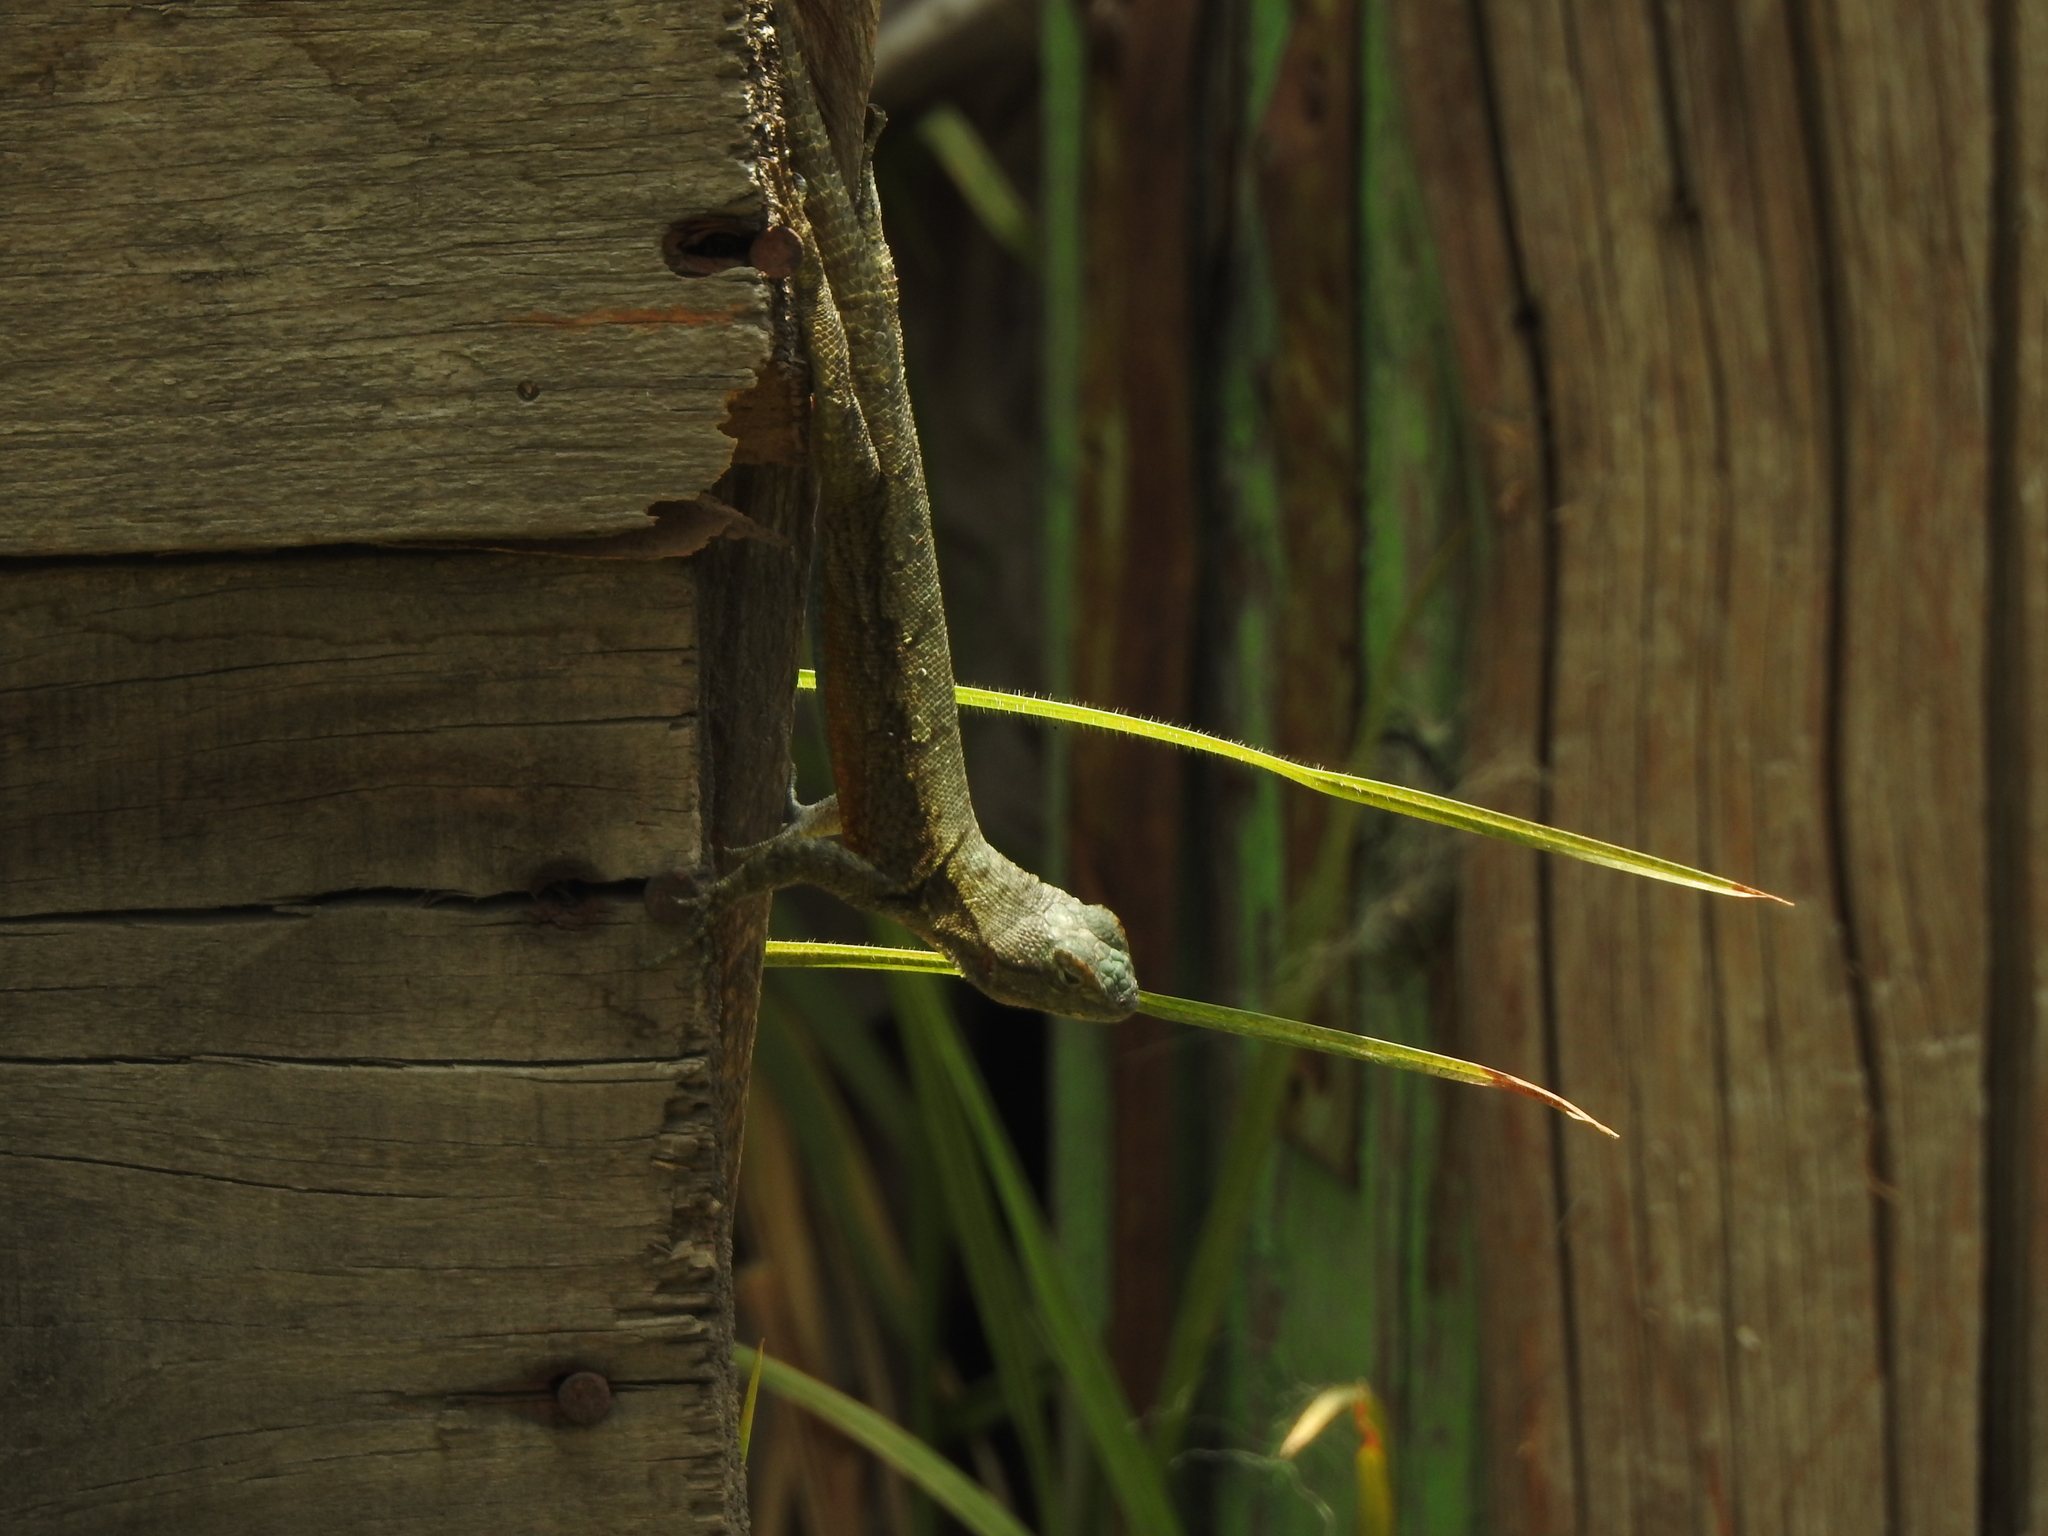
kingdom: Animalia
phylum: Chordata
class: Squamata
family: Phrynosomatidae
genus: Sceloporus
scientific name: Sceloporus grammicus
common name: Mesquite lizard
